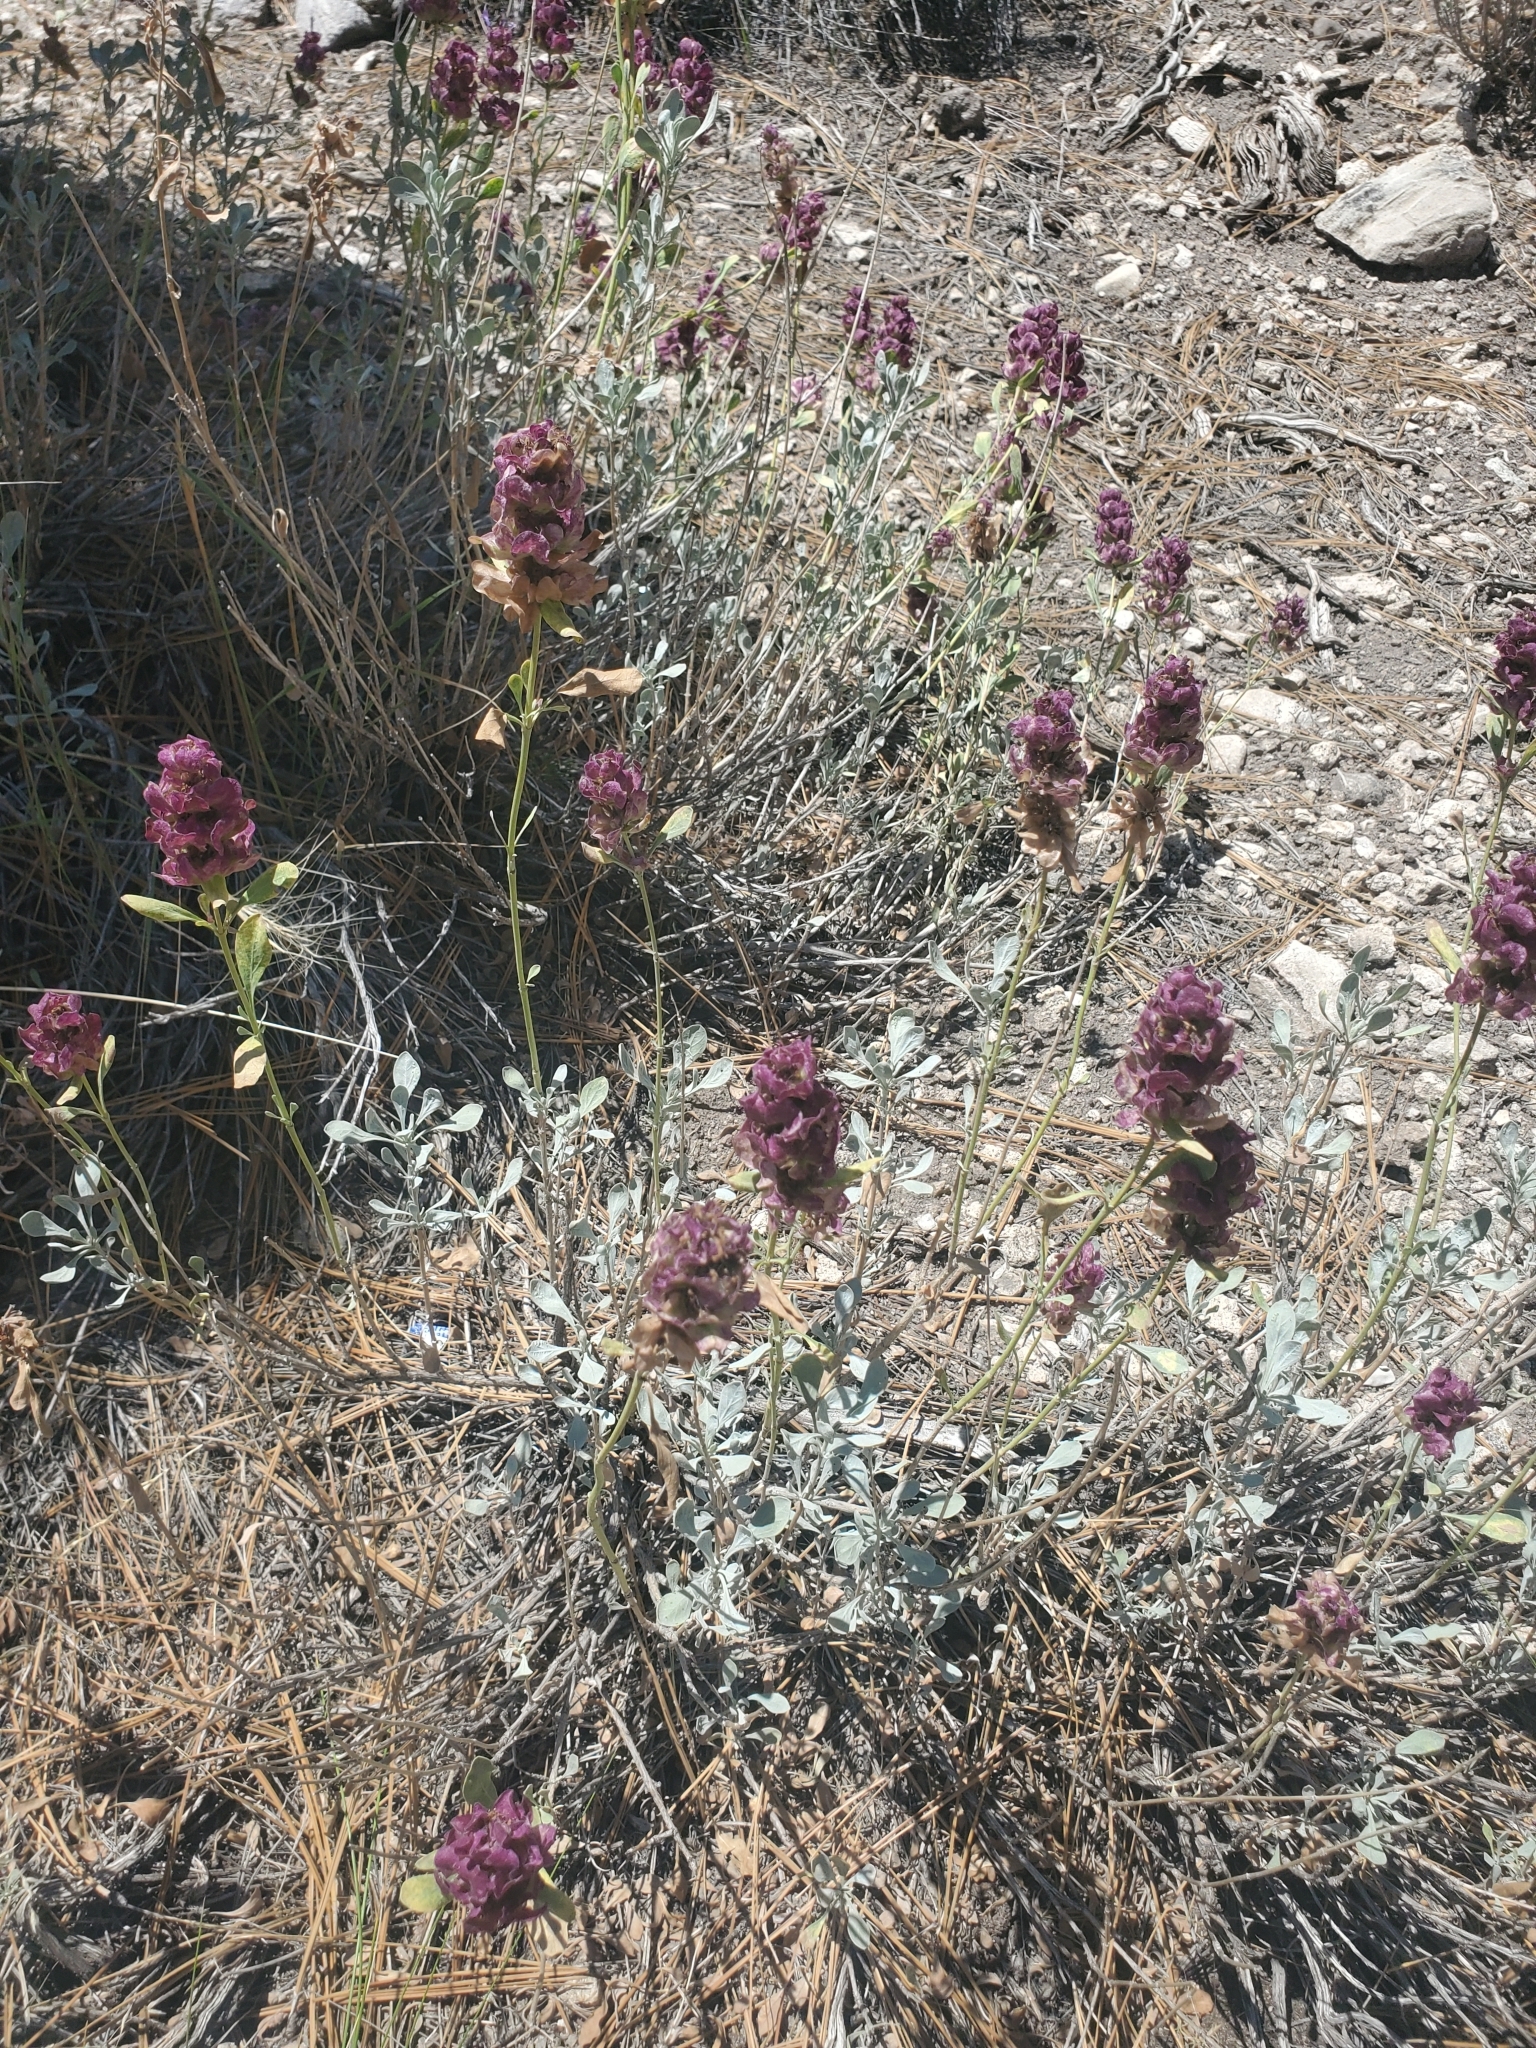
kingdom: Plantae
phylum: Tracheophyta
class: Magnoliopsida
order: Lamiales
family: Lamiaceae
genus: Salvia
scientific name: Salvia pachyphylla
